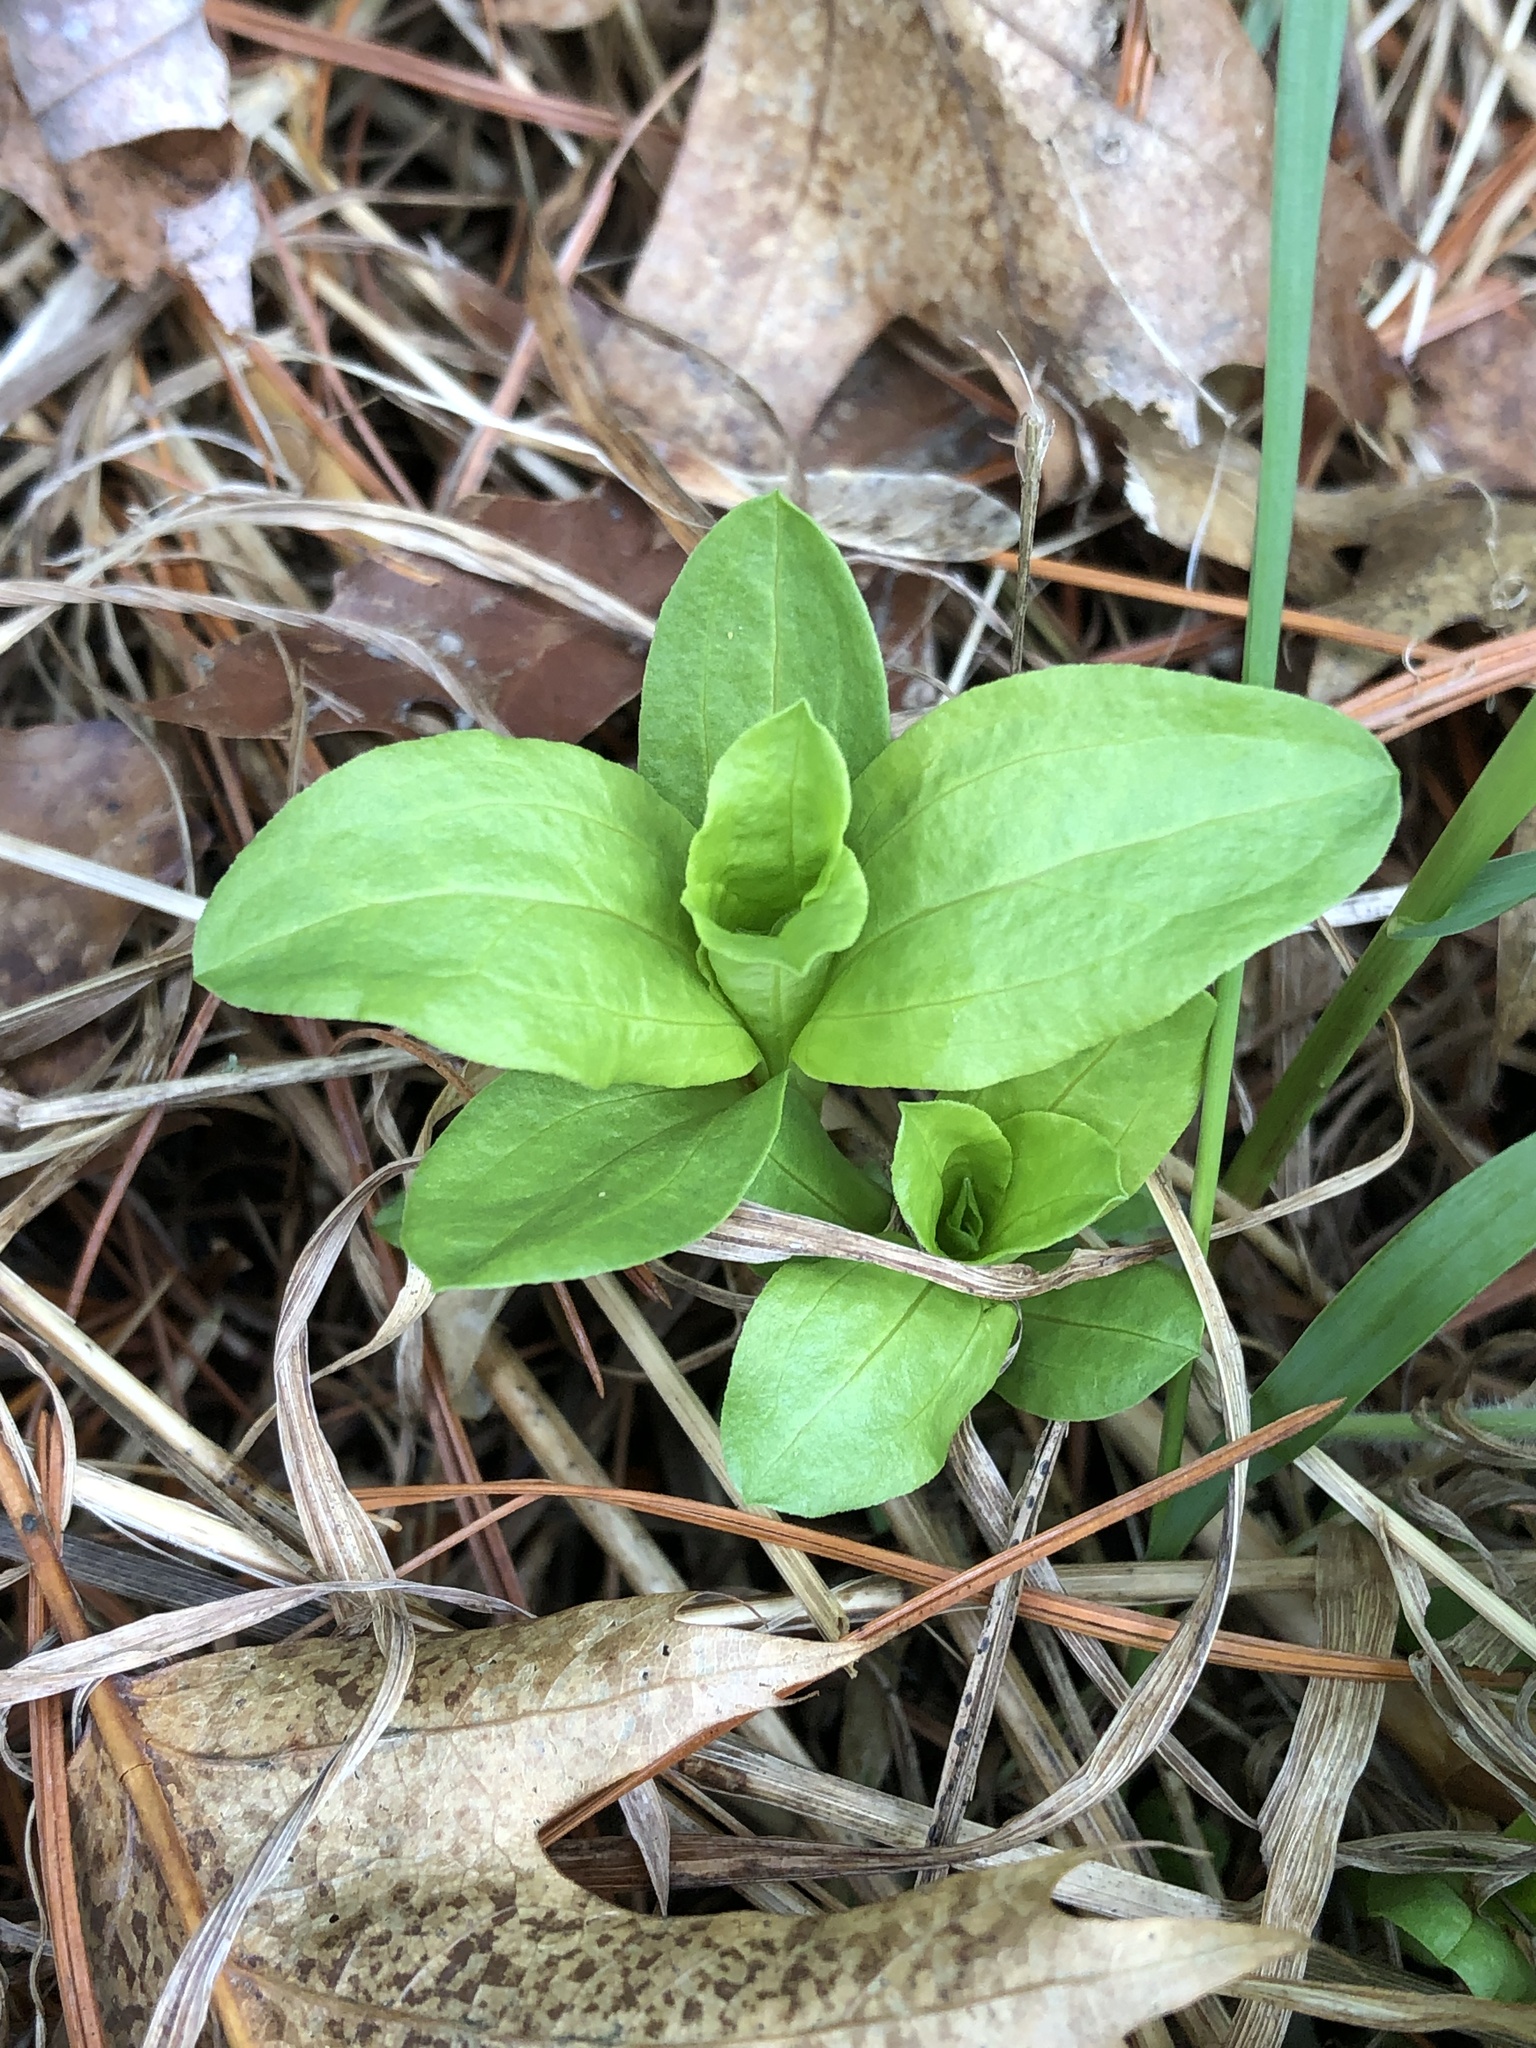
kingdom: Plantae
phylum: Tracheophyta
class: Magnoliopsida
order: Caryophyllales
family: Caryophyllaceae
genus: Saponaria
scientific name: Saponaria officinalis
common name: Soapwort
